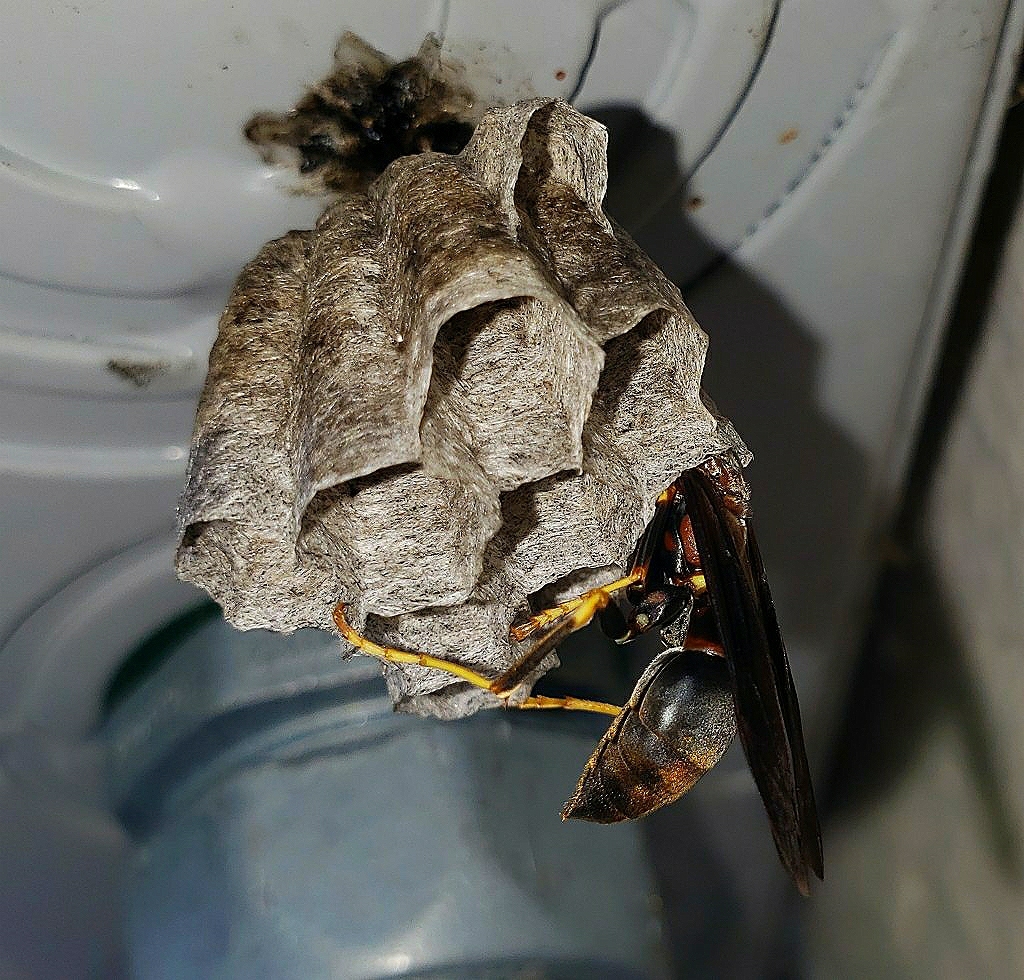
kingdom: Animalia
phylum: Arthropoda
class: Insecta
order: Hymenoptera
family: Vespidae
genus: Fuscopolistes
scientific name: Fuscopolistes
